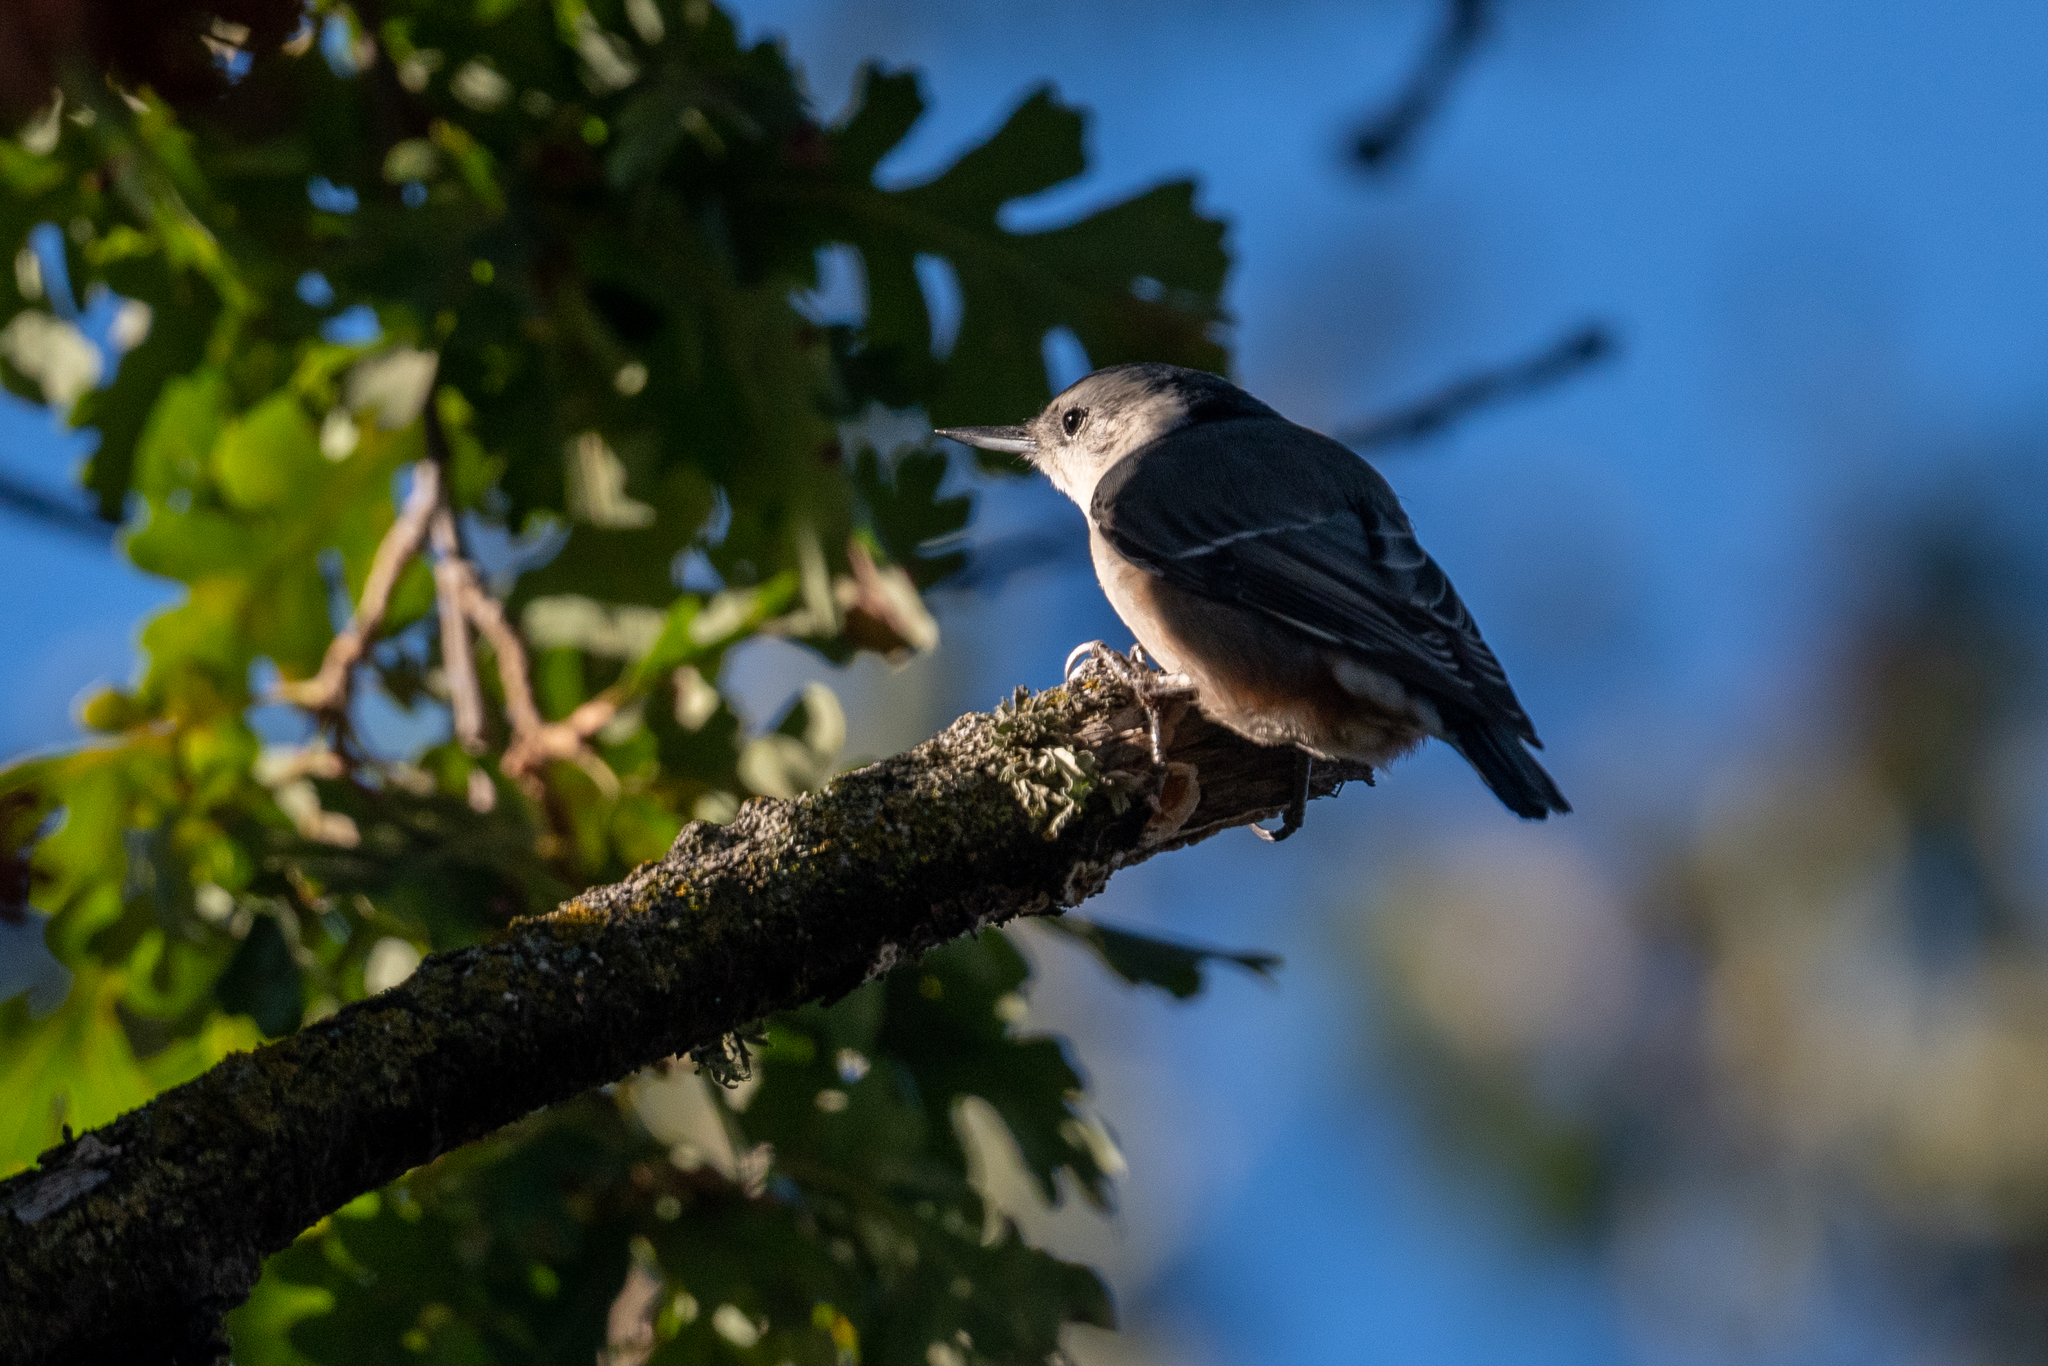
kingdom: Animalia
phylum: Chordata
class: Aves
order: Passeriformes
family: Sittidae
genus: Sitta
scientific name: Sitta carolinensis
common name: White-breasted nuthatch
